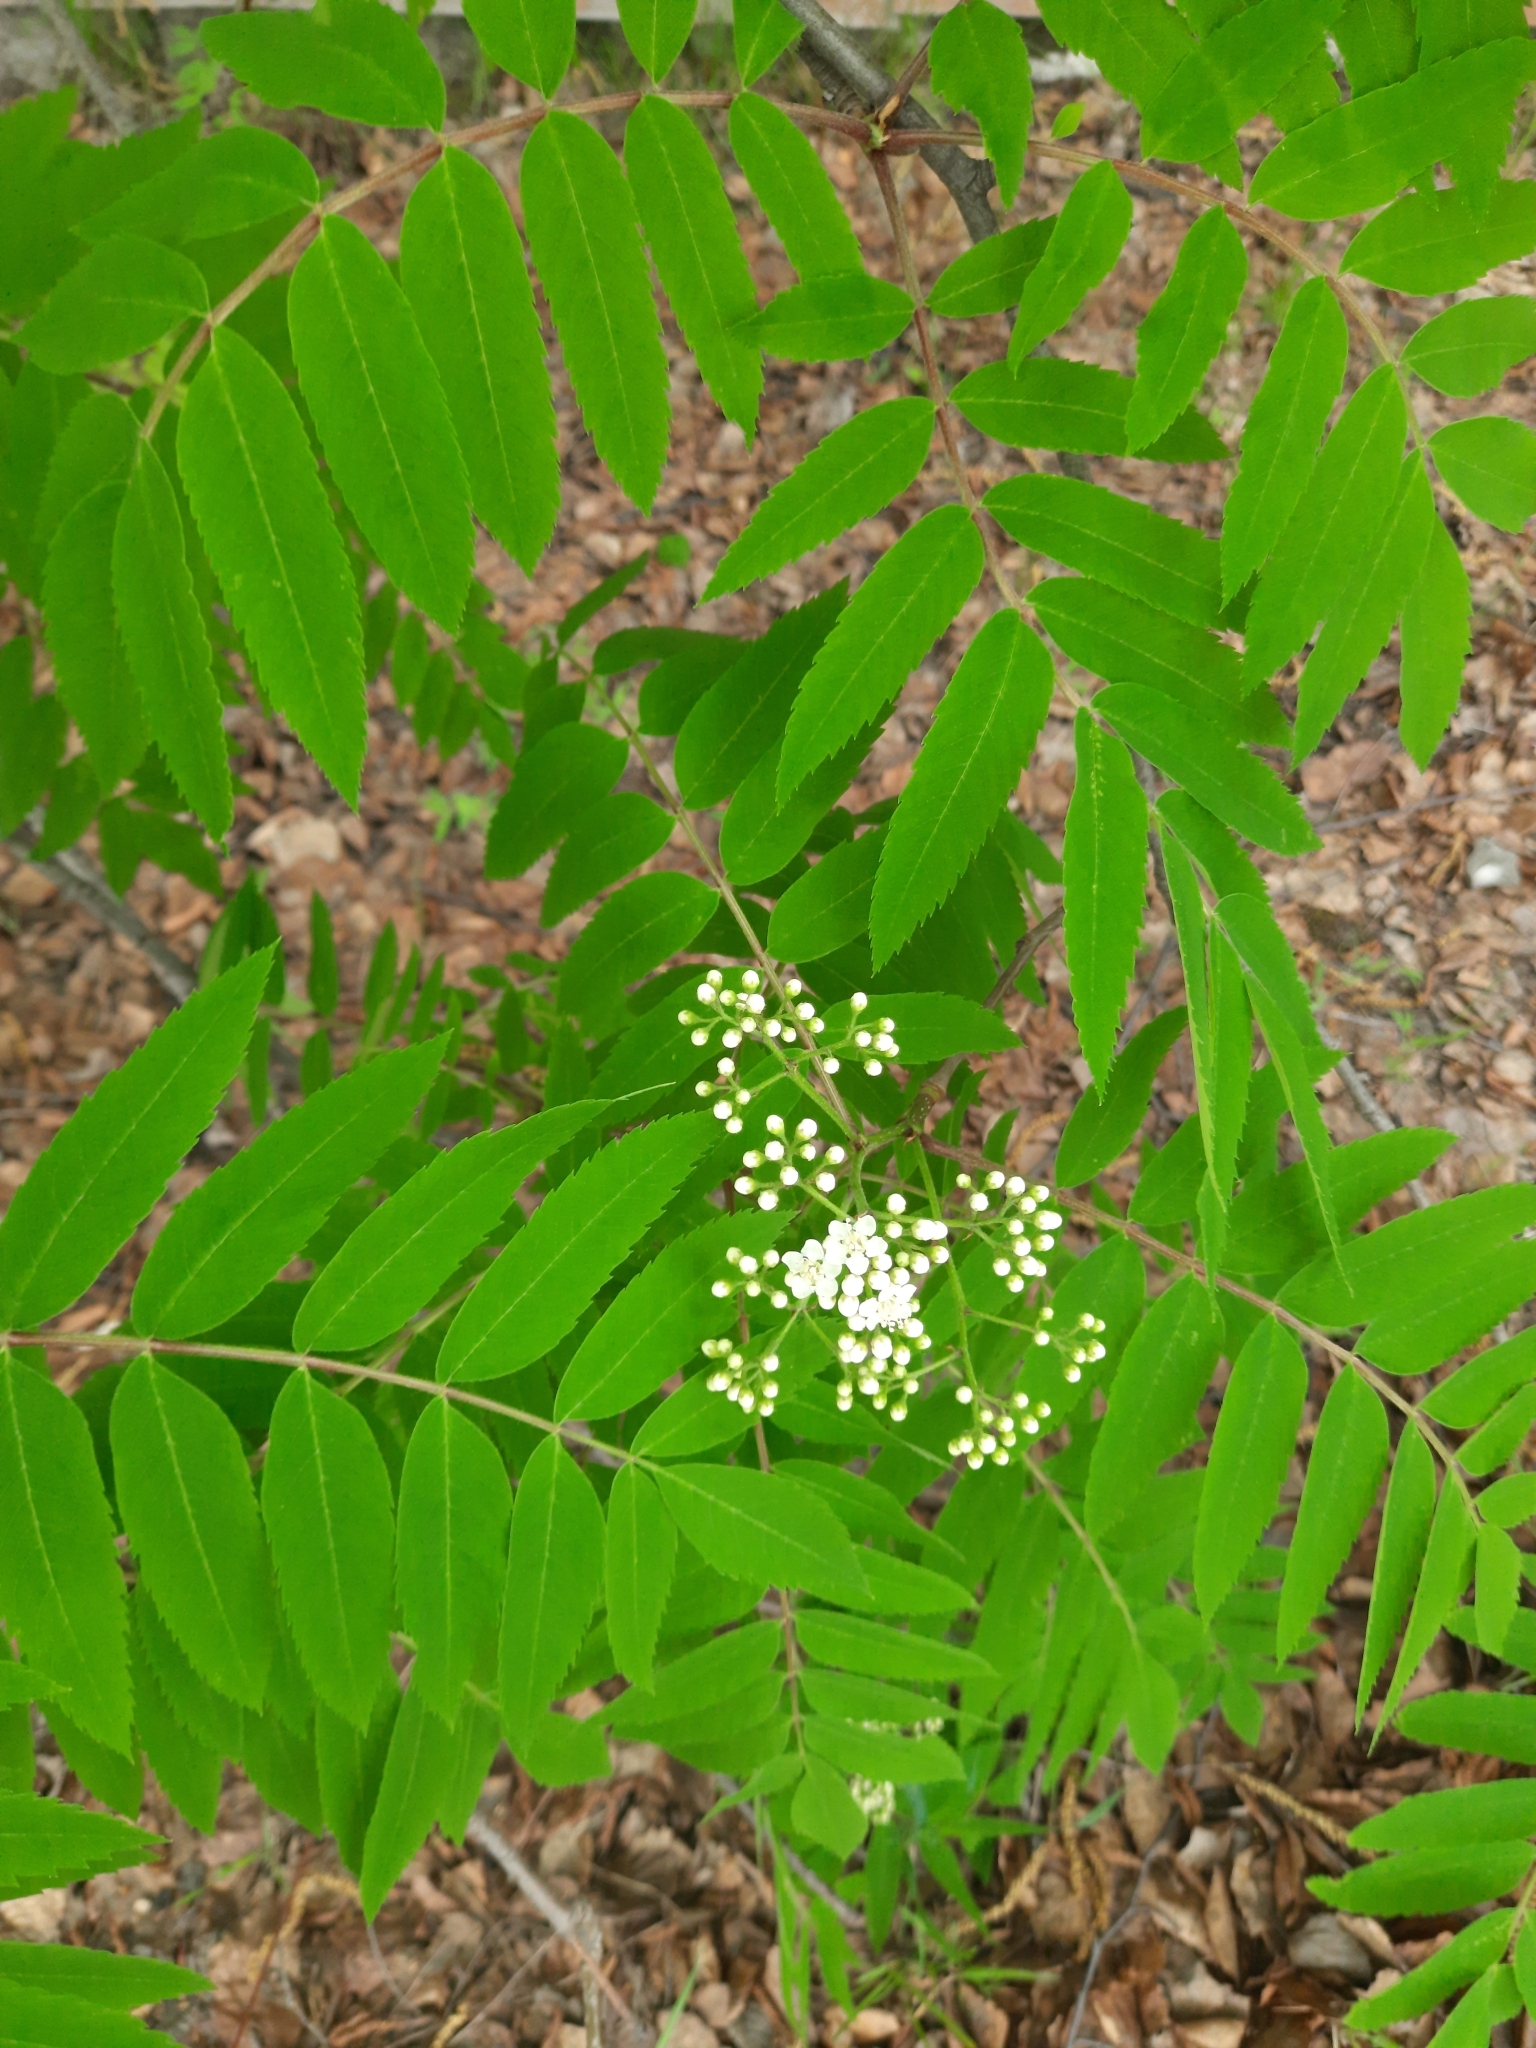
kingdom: Plantae
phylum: Tracheophyta
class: Magnoliopsida
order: Rosales
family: Rosaceae
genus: Sorbus
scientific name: Sorbus aucuparia
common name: Rowan
